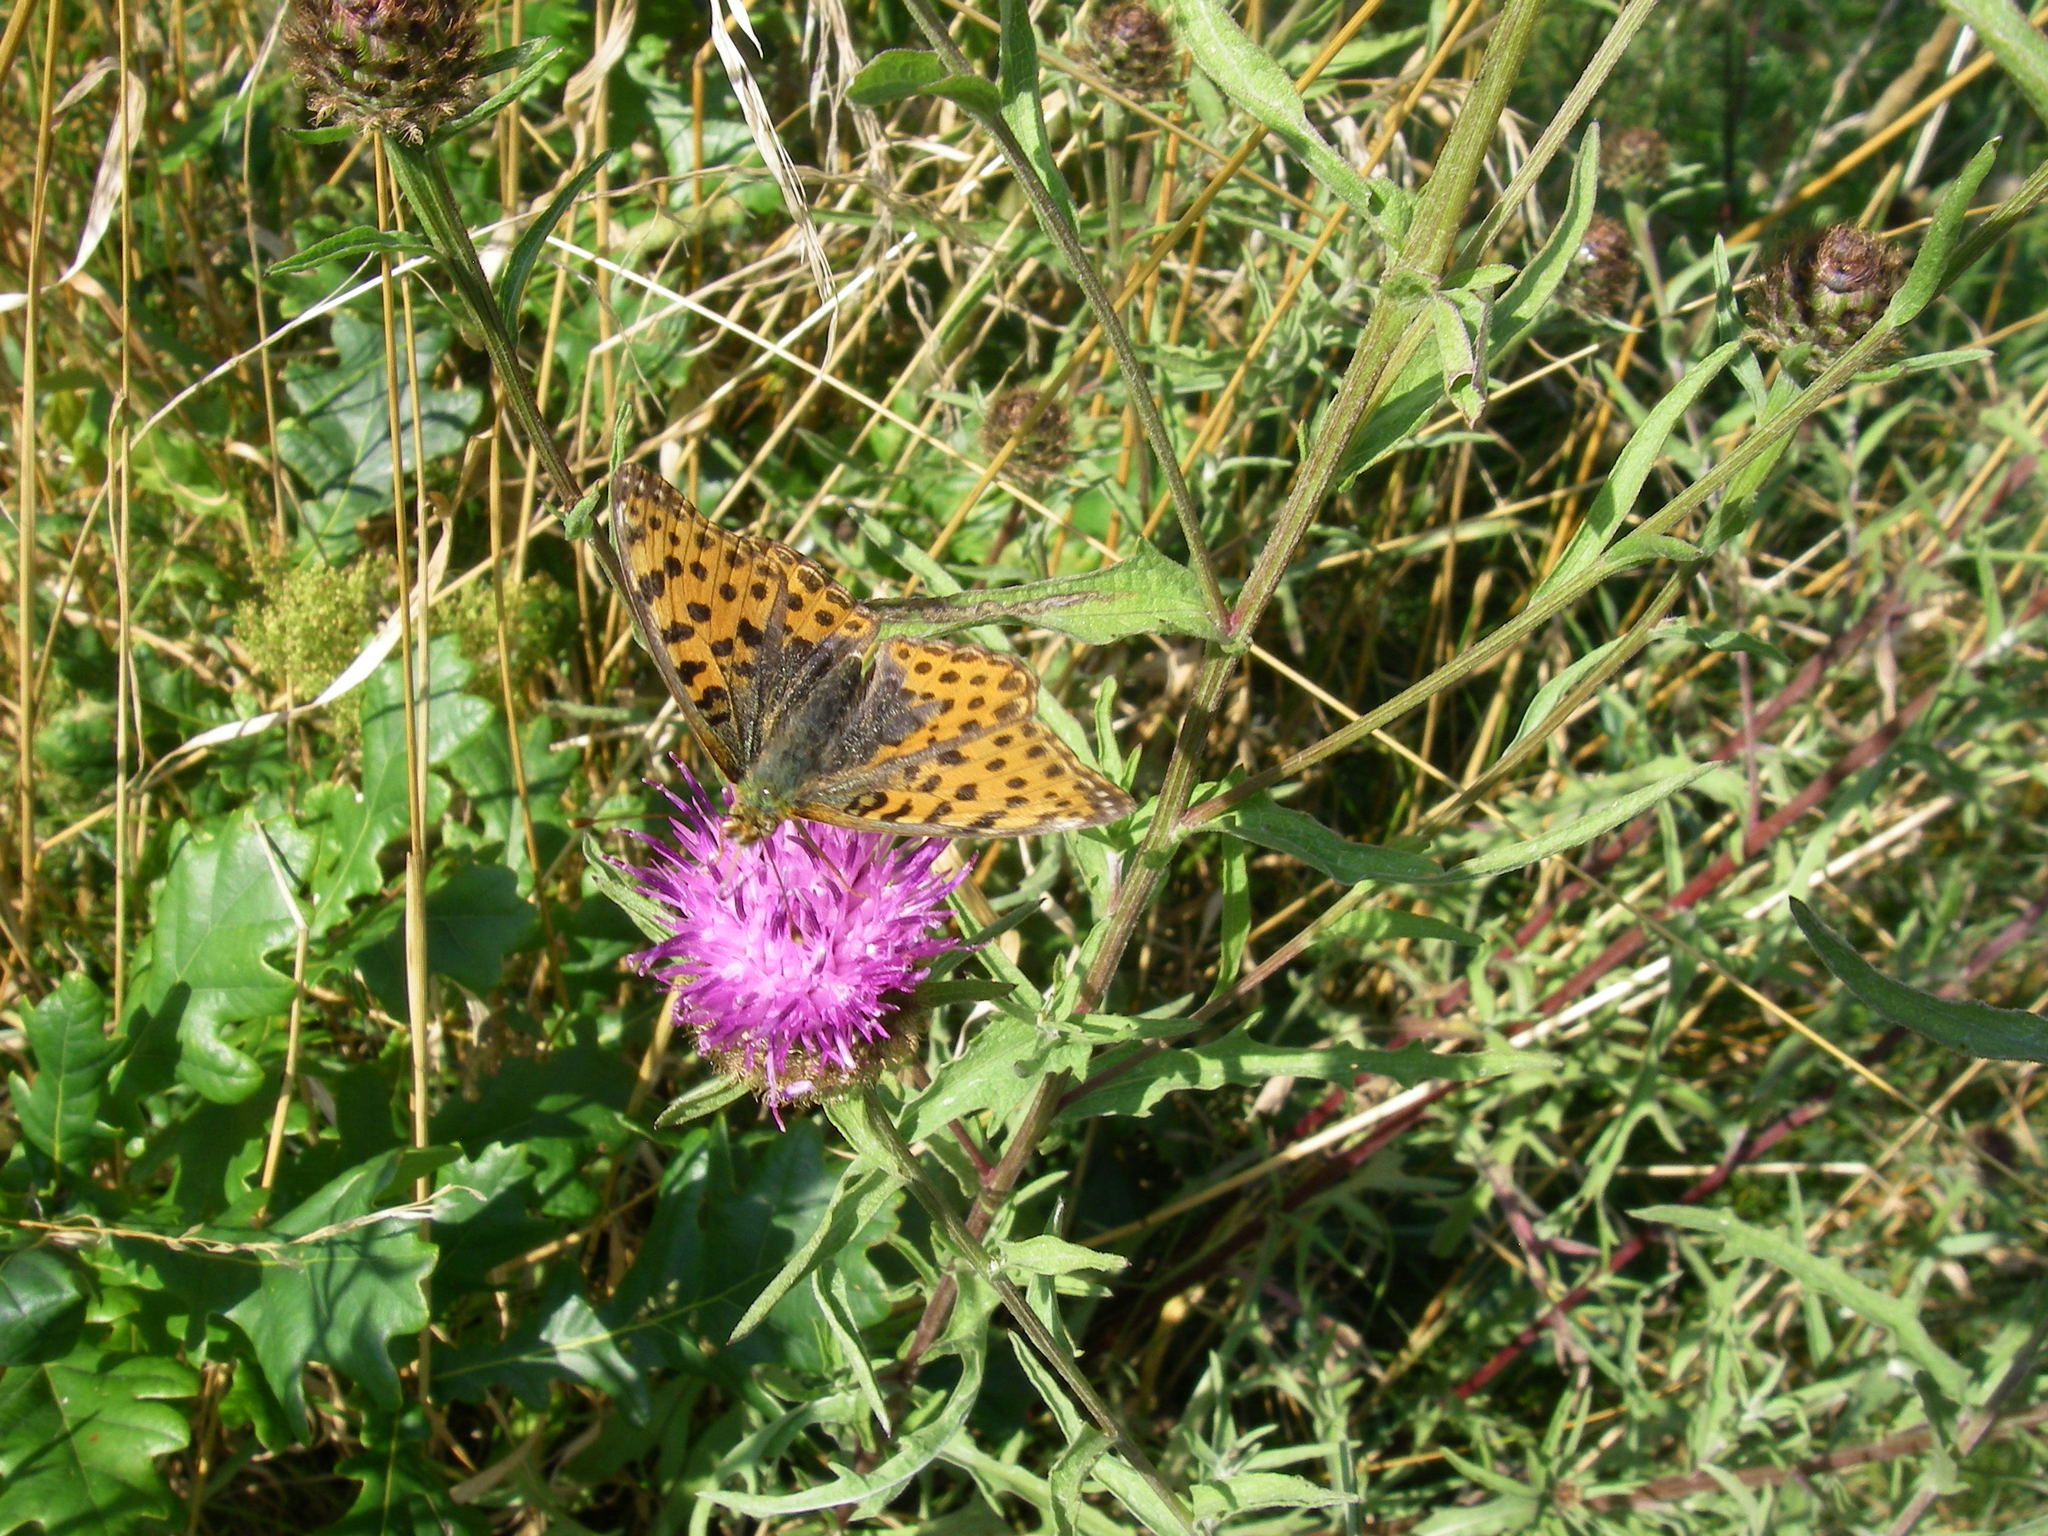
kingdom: Animalia
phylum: Arthropoda
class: Insecta
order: Lepidoptera
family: Nymphalidae
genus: Issoria
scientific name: Issoria lathonia
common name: Queen of spain fritillary
